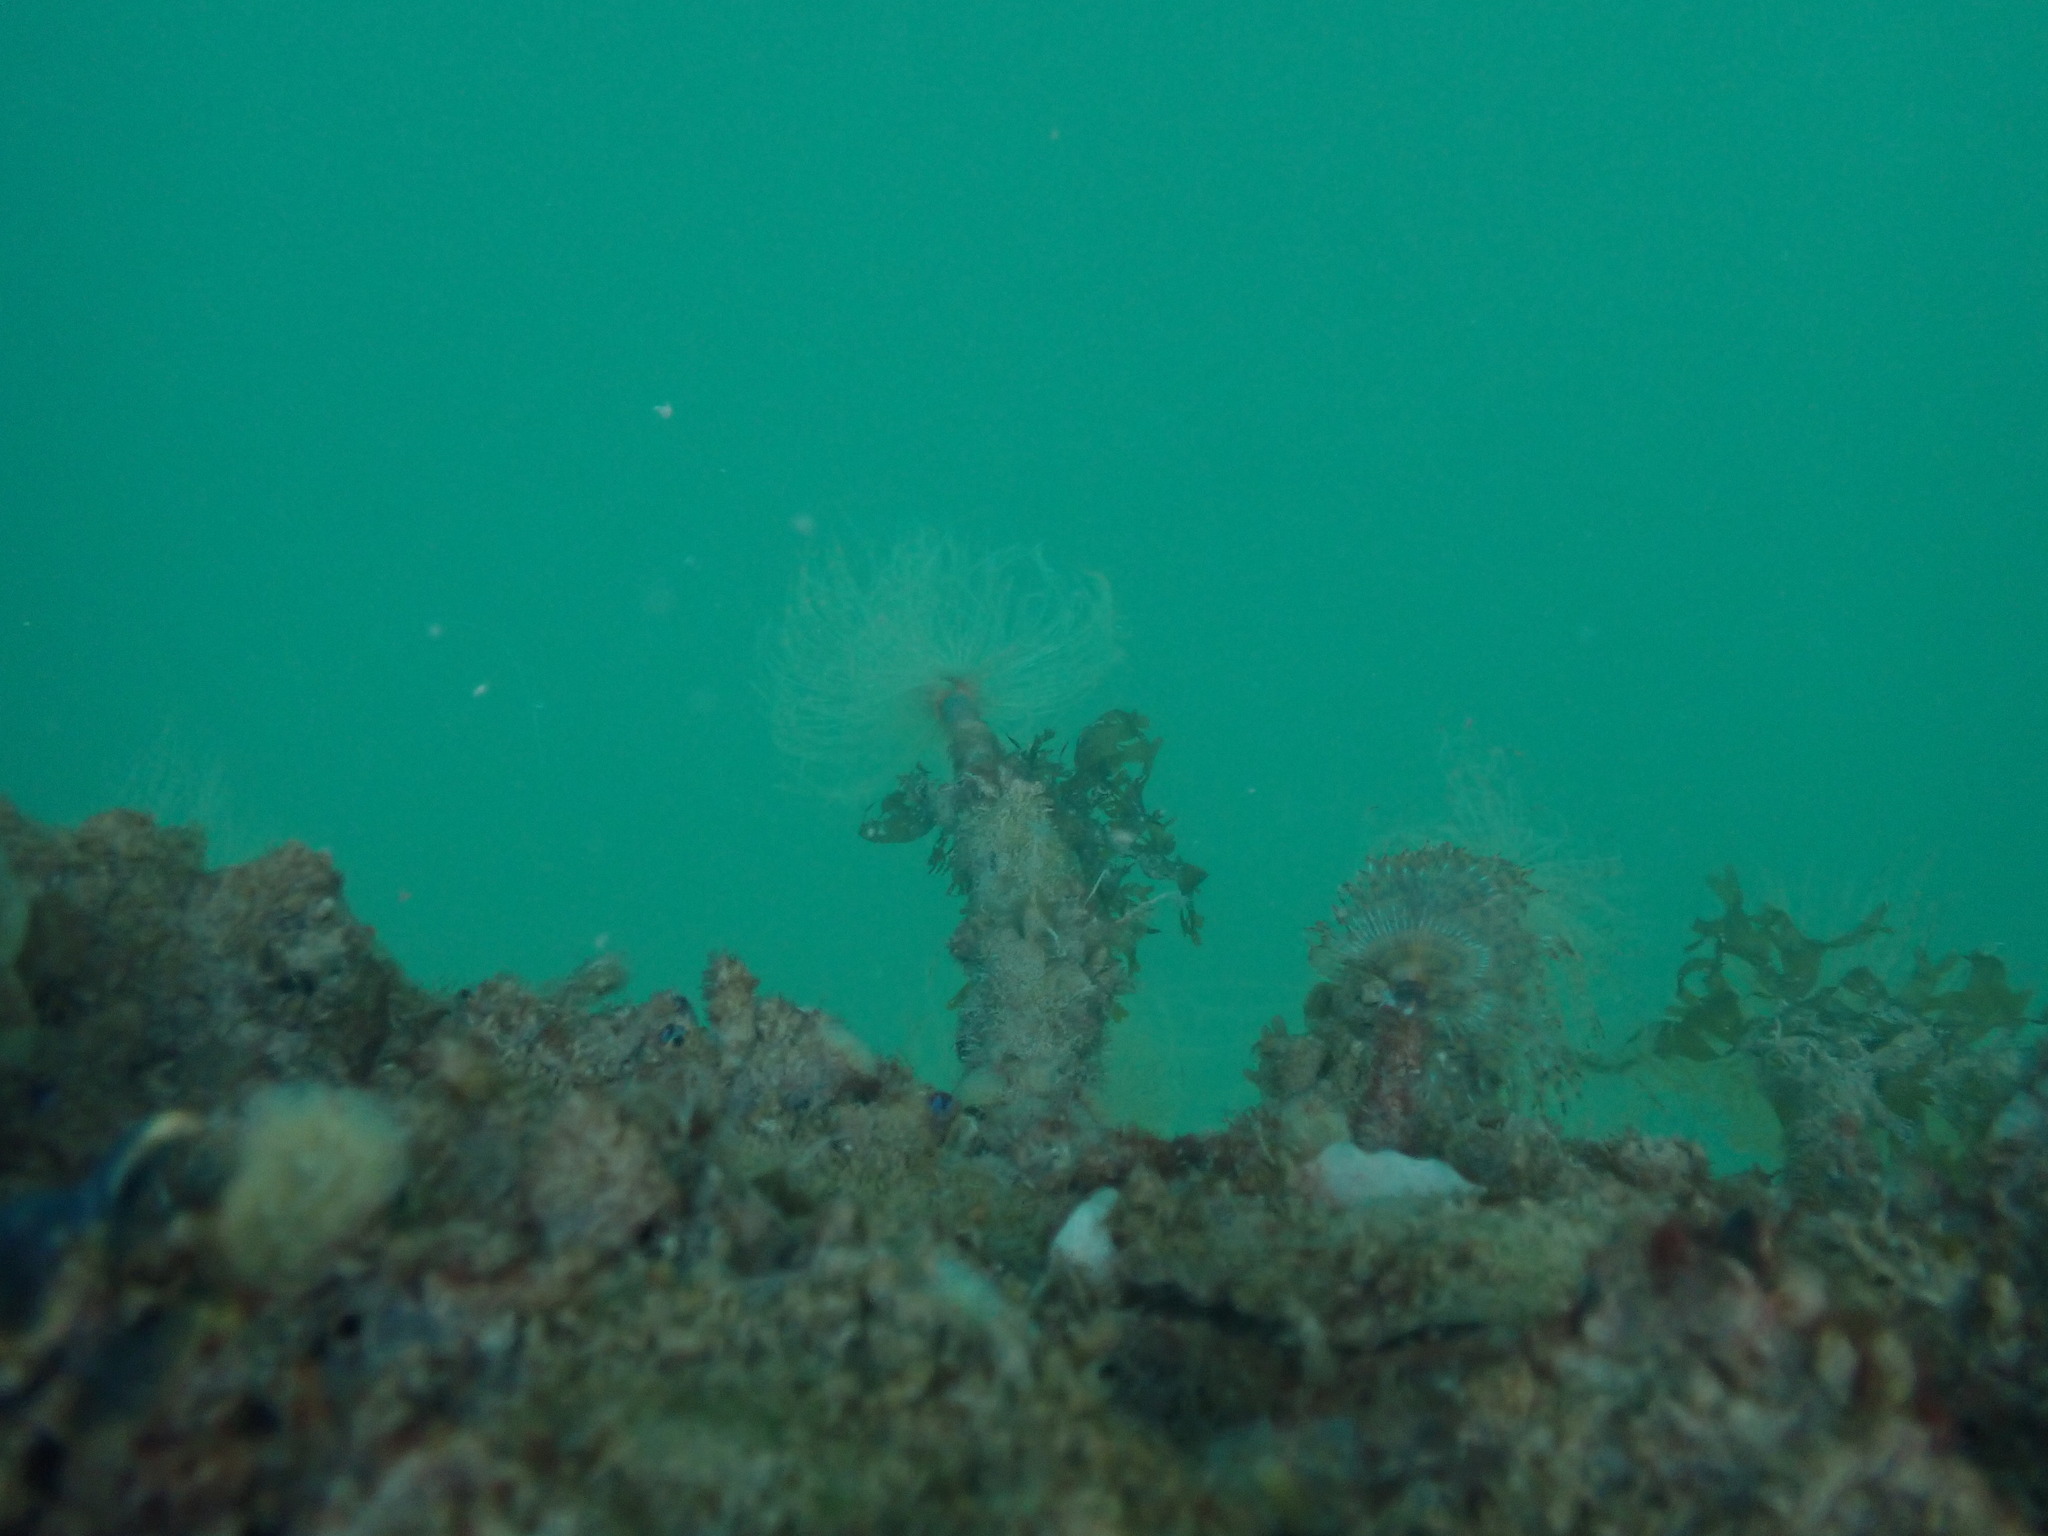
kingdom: Animalia
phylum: Annelida
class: Polychaeta
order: Sabellida
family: Sabellidae
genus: Sabella
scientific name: Sabella spallanzanii
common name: Feather duster worm
